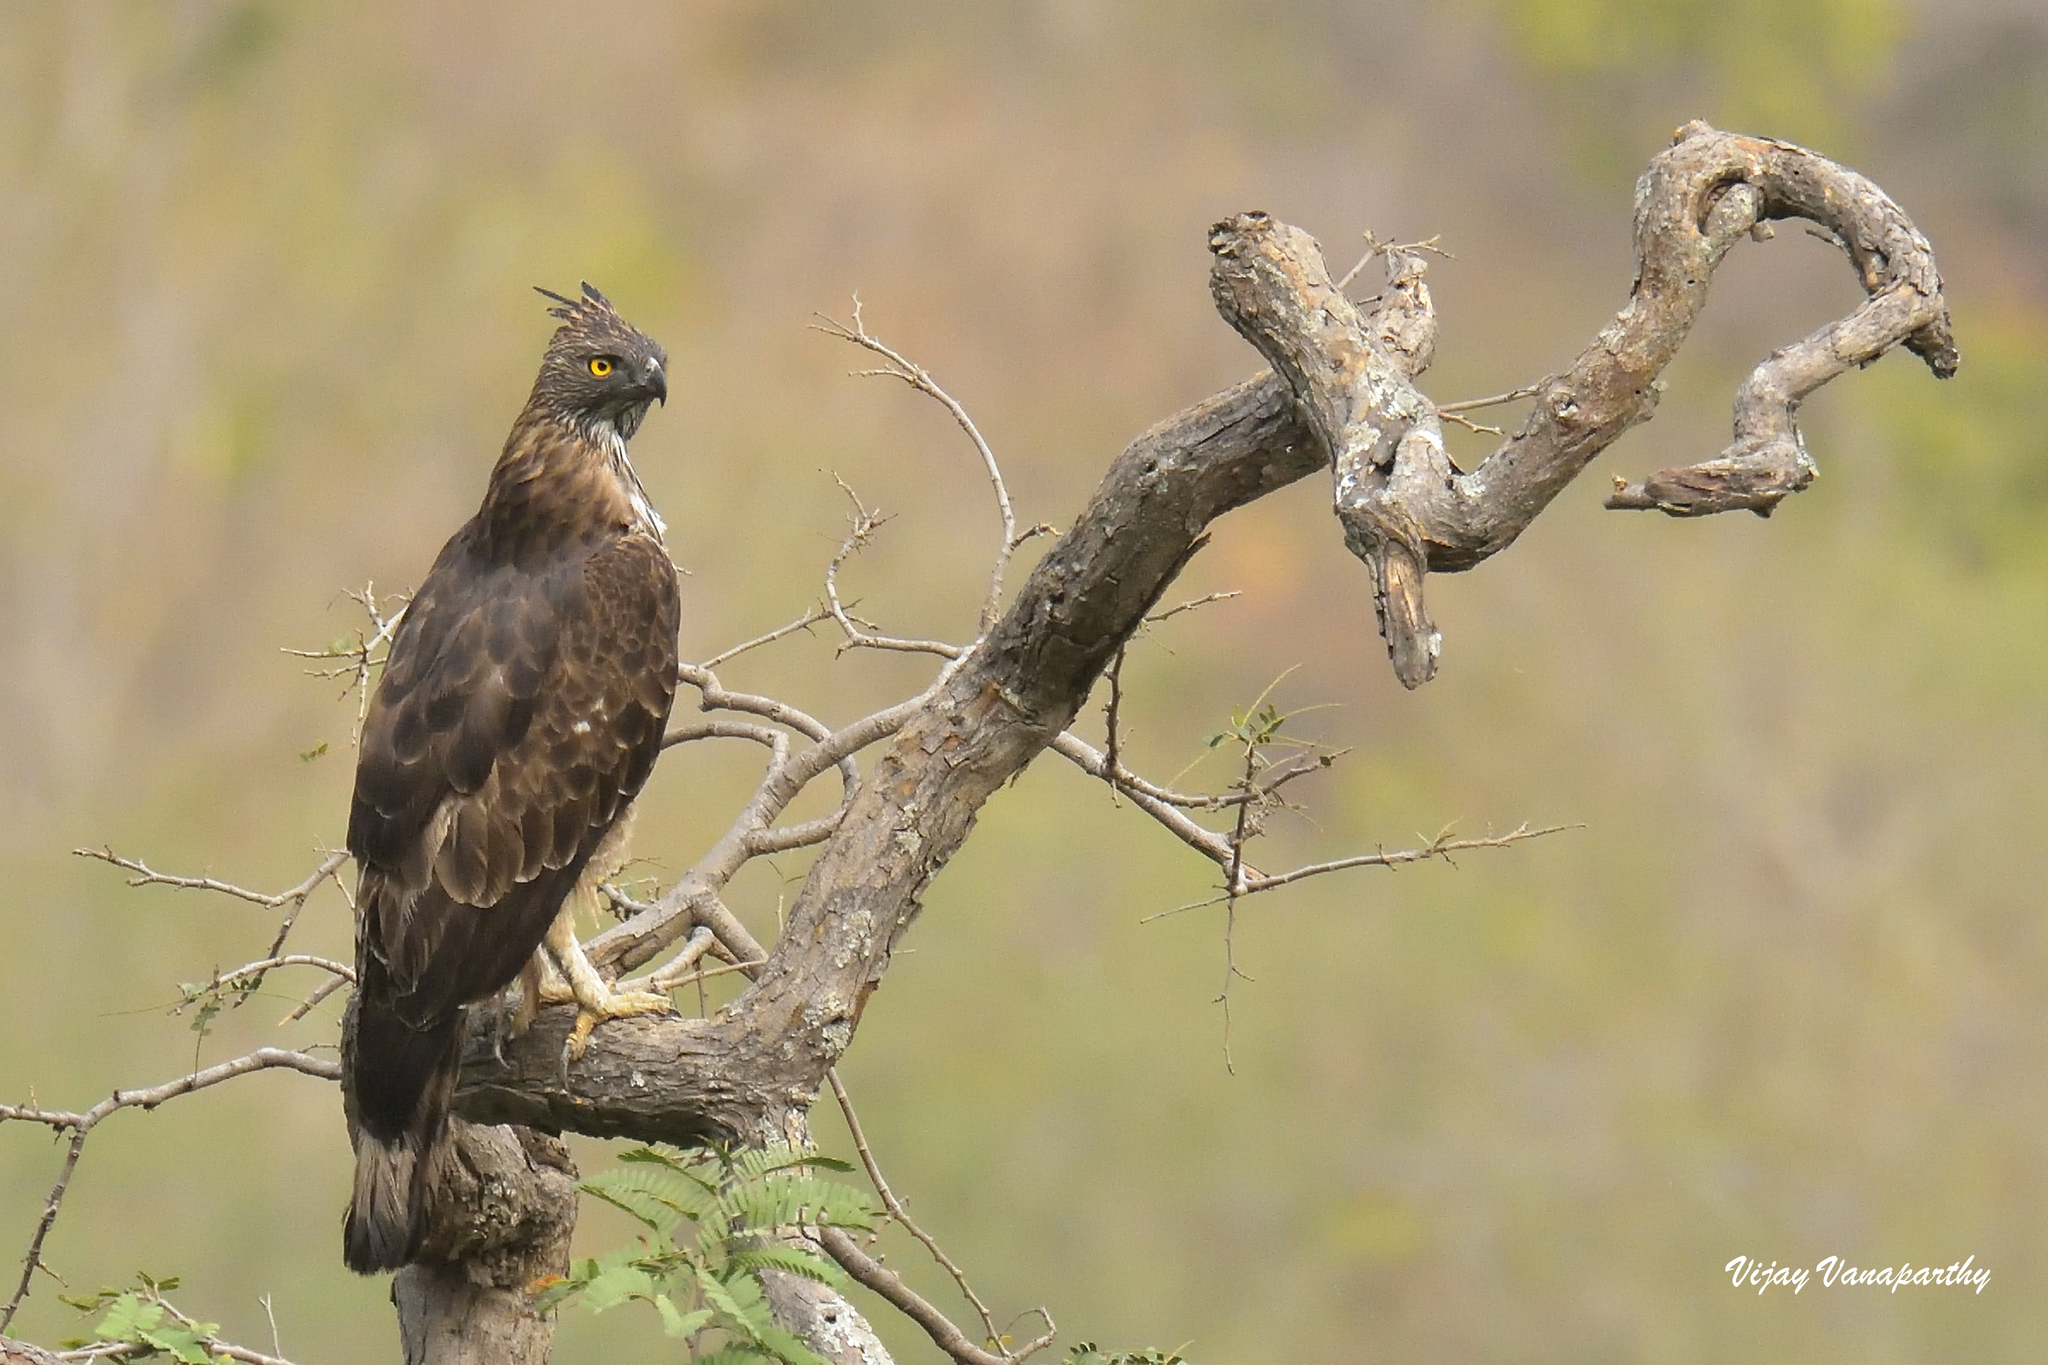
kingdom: Animalia
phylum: Chordata
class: Aves
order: Accipitriformes
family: Accipitridae
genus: Nisaetus
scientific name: Nisaetus cirrhatus
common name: Changeable hawk-eagle
